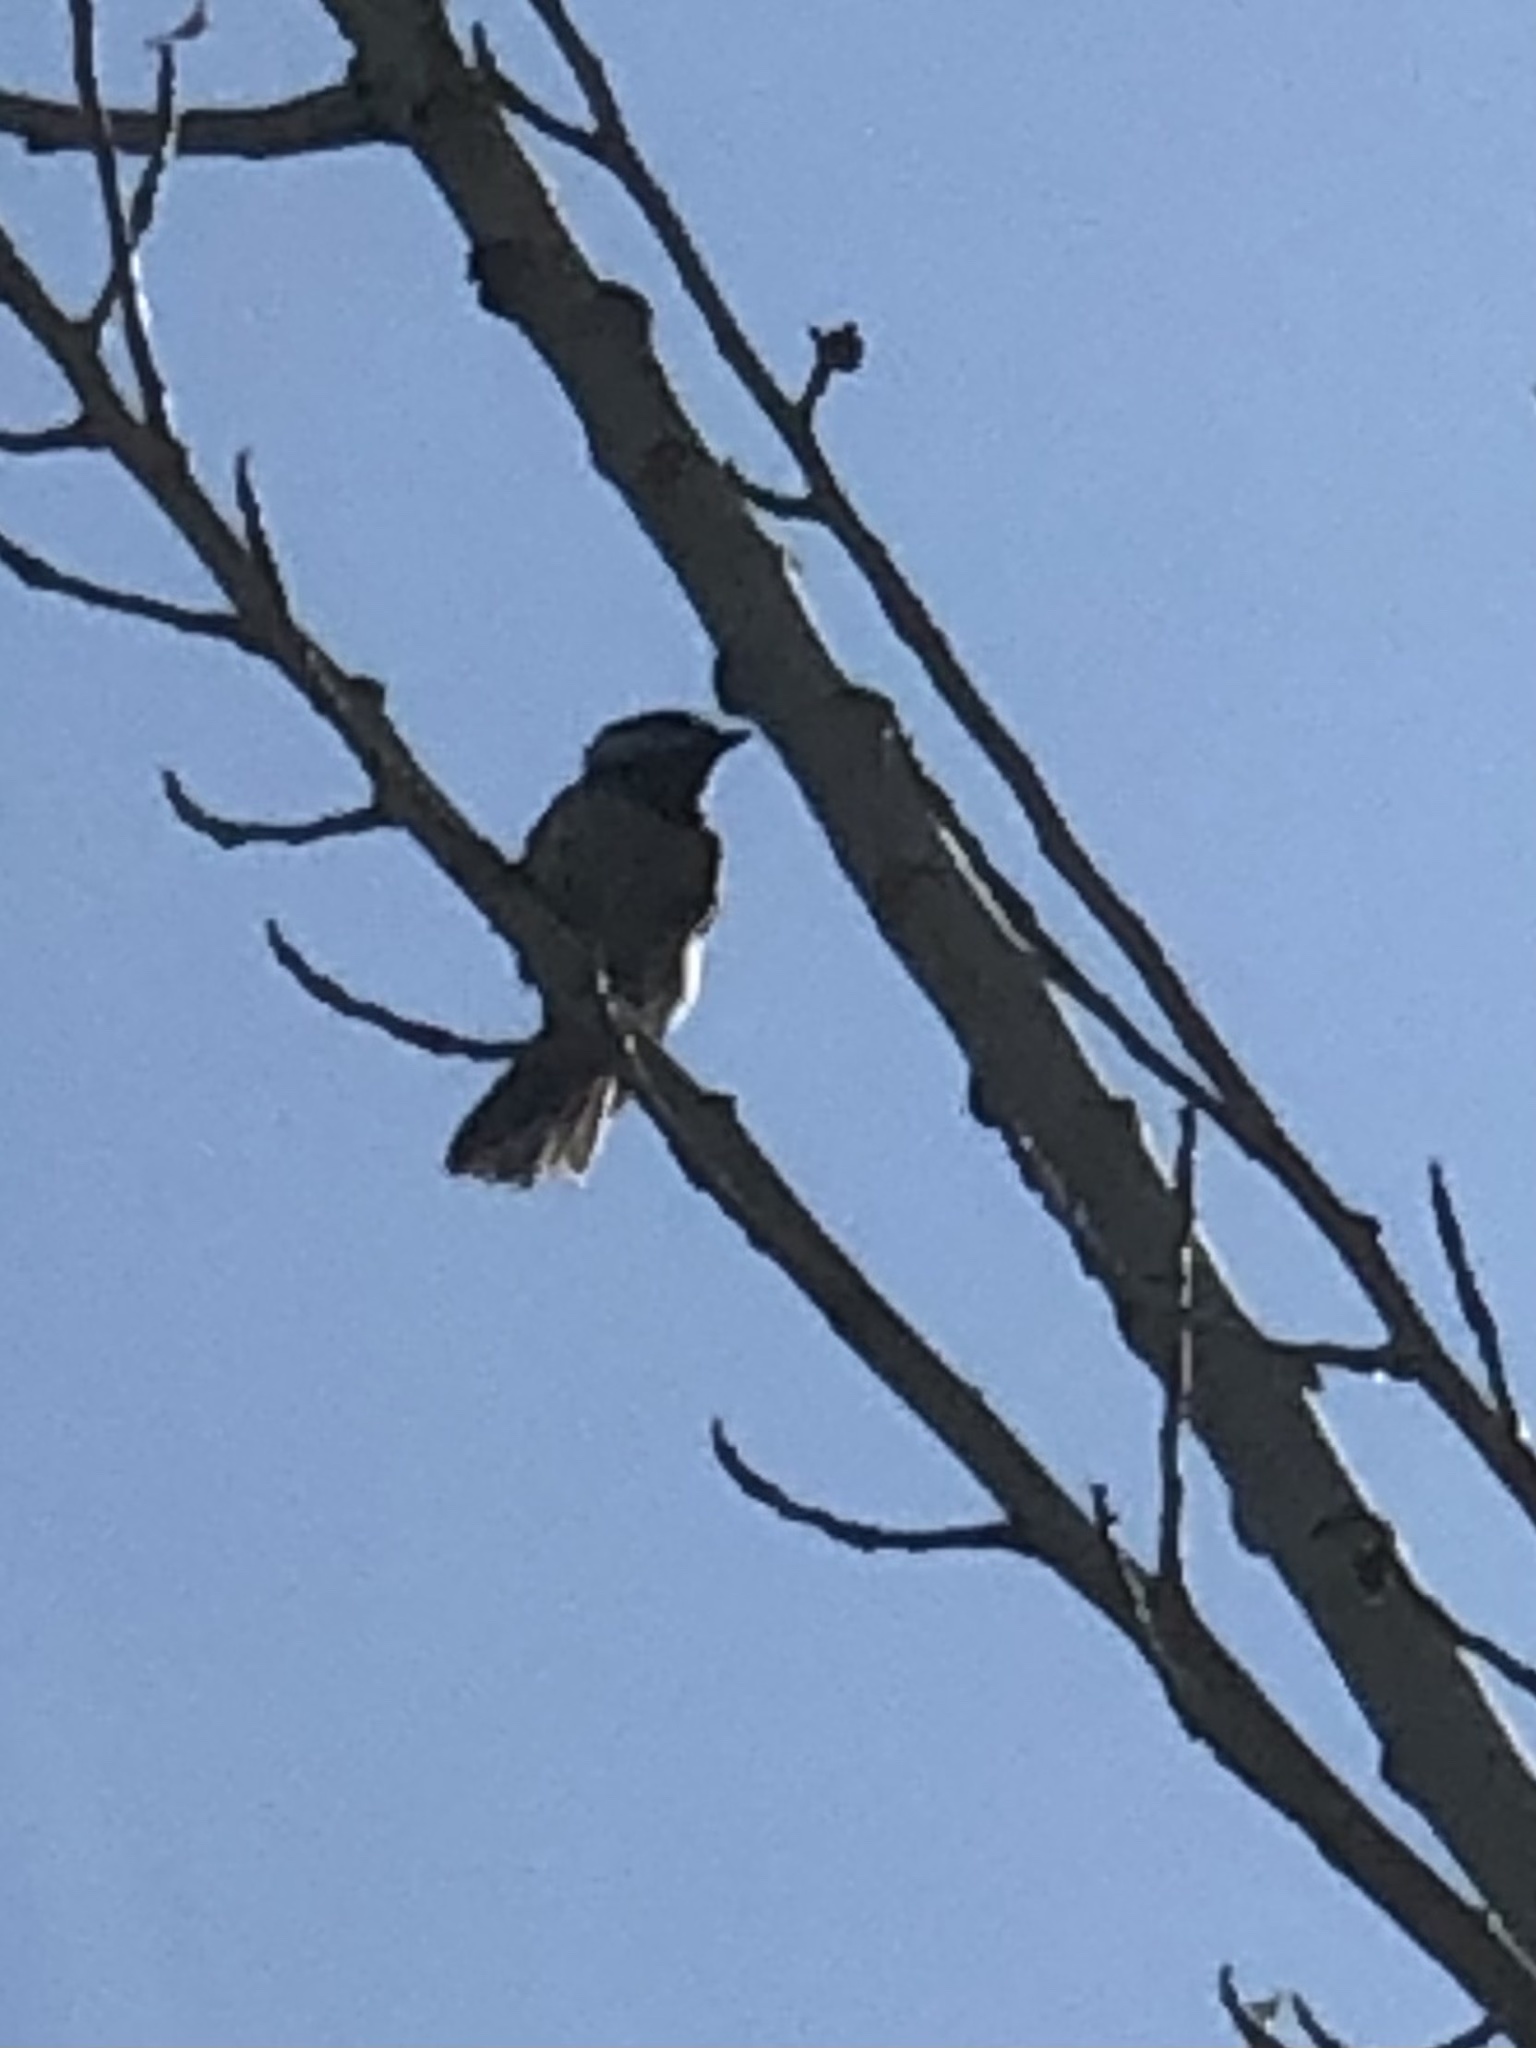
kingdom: Animalia
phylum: Chordata
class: Aves
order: Passeriformes
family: Paridae
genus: Poecile
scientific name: Poecile atricapillus
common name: Black-capped chickadee
